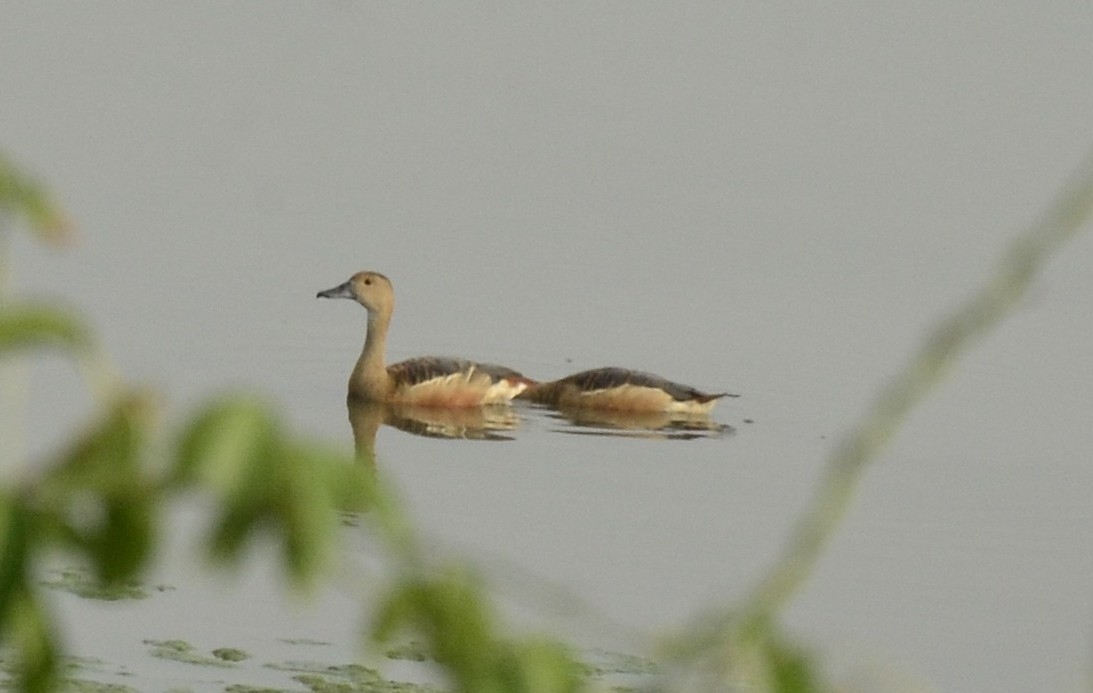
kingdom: Animalia
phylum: Chordata
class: Aves
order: Anseriformes
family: Anatidae
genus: Dendrocygna
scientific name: Dendrocygna javanica
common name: Lesser whistling-duck
